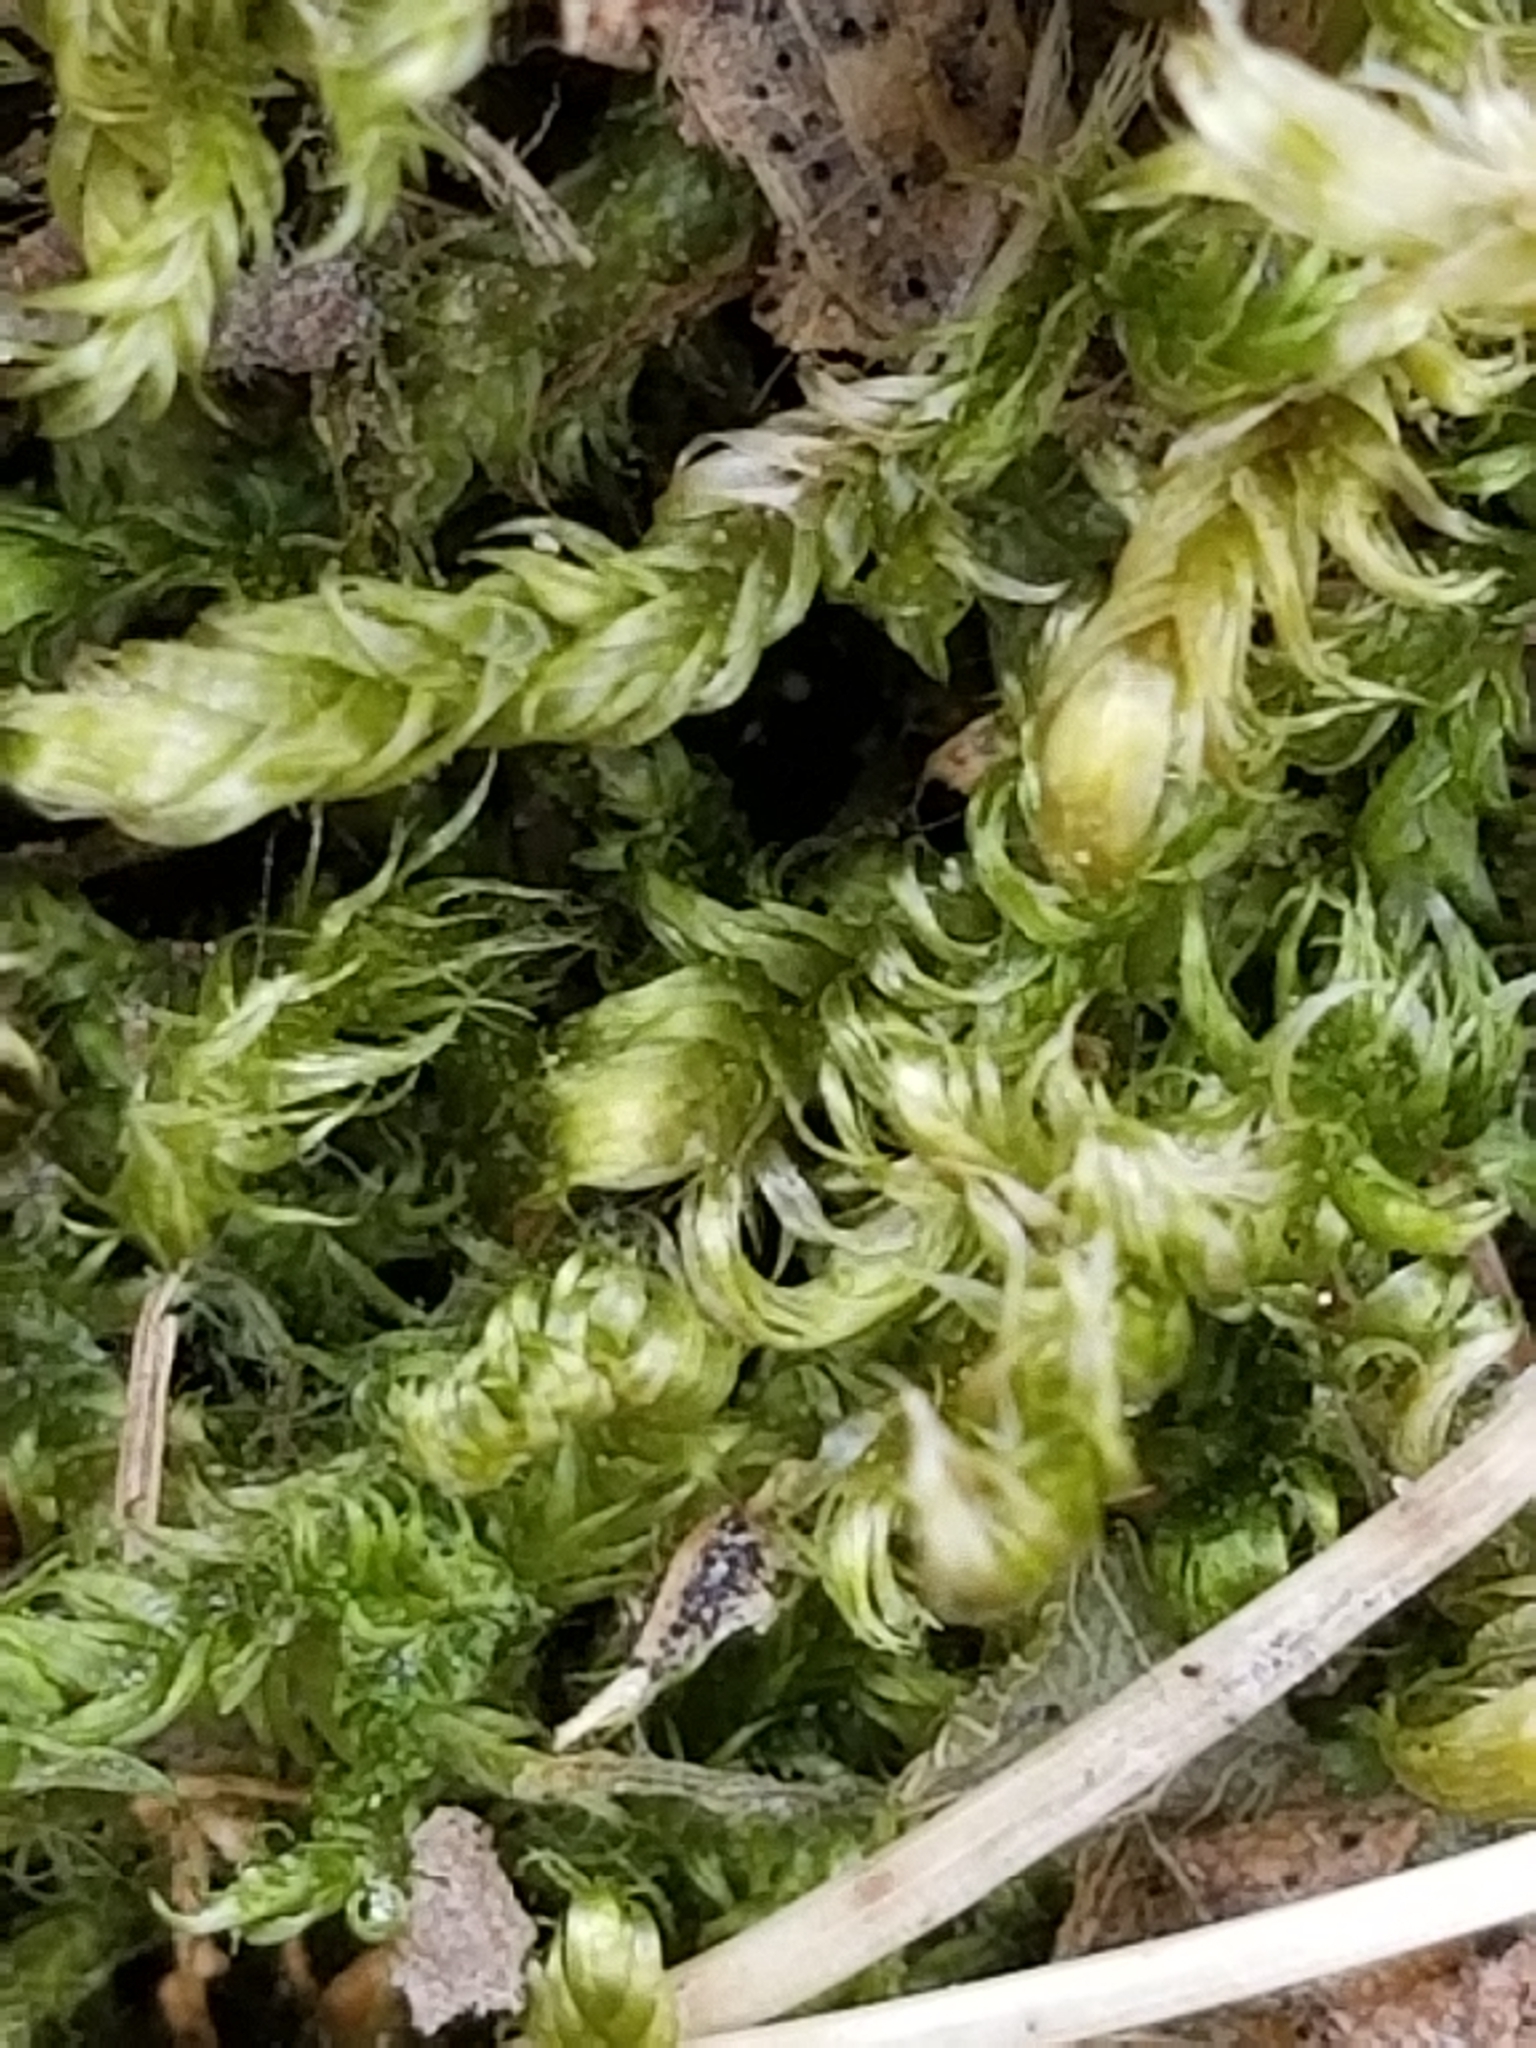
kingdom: Plantae
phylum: Bryophyta
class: Bryopsida
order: Hypnales
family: Pylaisiaceae
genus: Calliergonella
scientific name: Calliergonella lindbergii
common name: Lindberg's plait-moss
